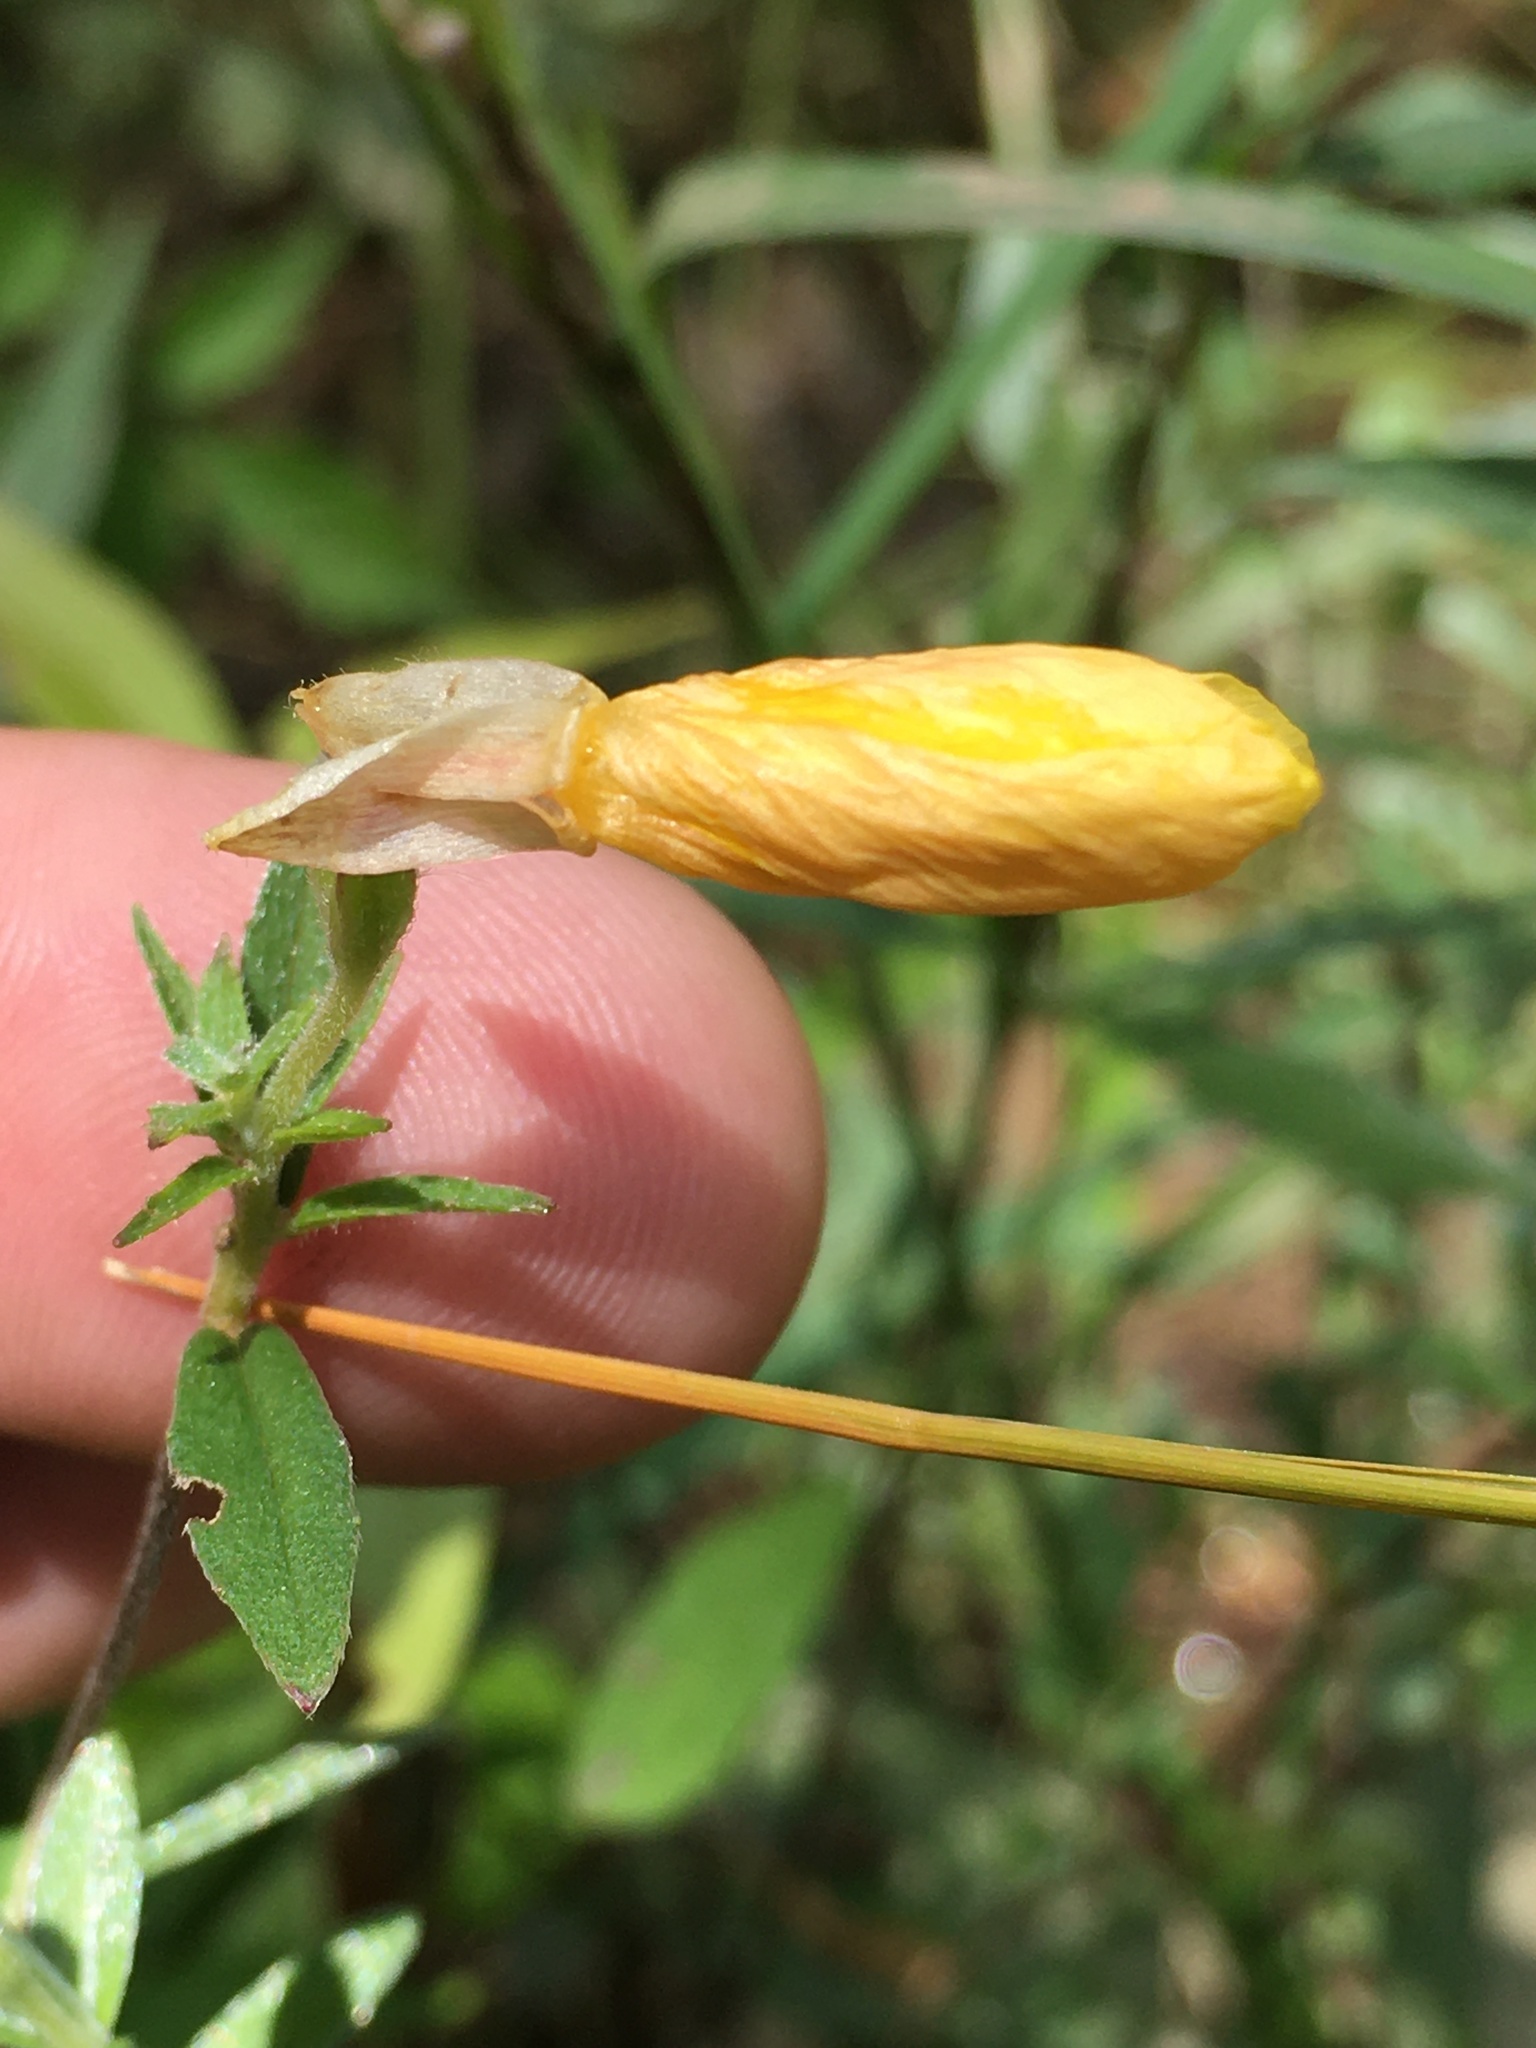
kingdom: Plantae
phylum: Tracheophyta
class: Magnoliopsida
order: Myrtales
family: Onagraceae
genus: Oenothera
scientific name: Oenothera fruticosa
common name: Southern sundrops
